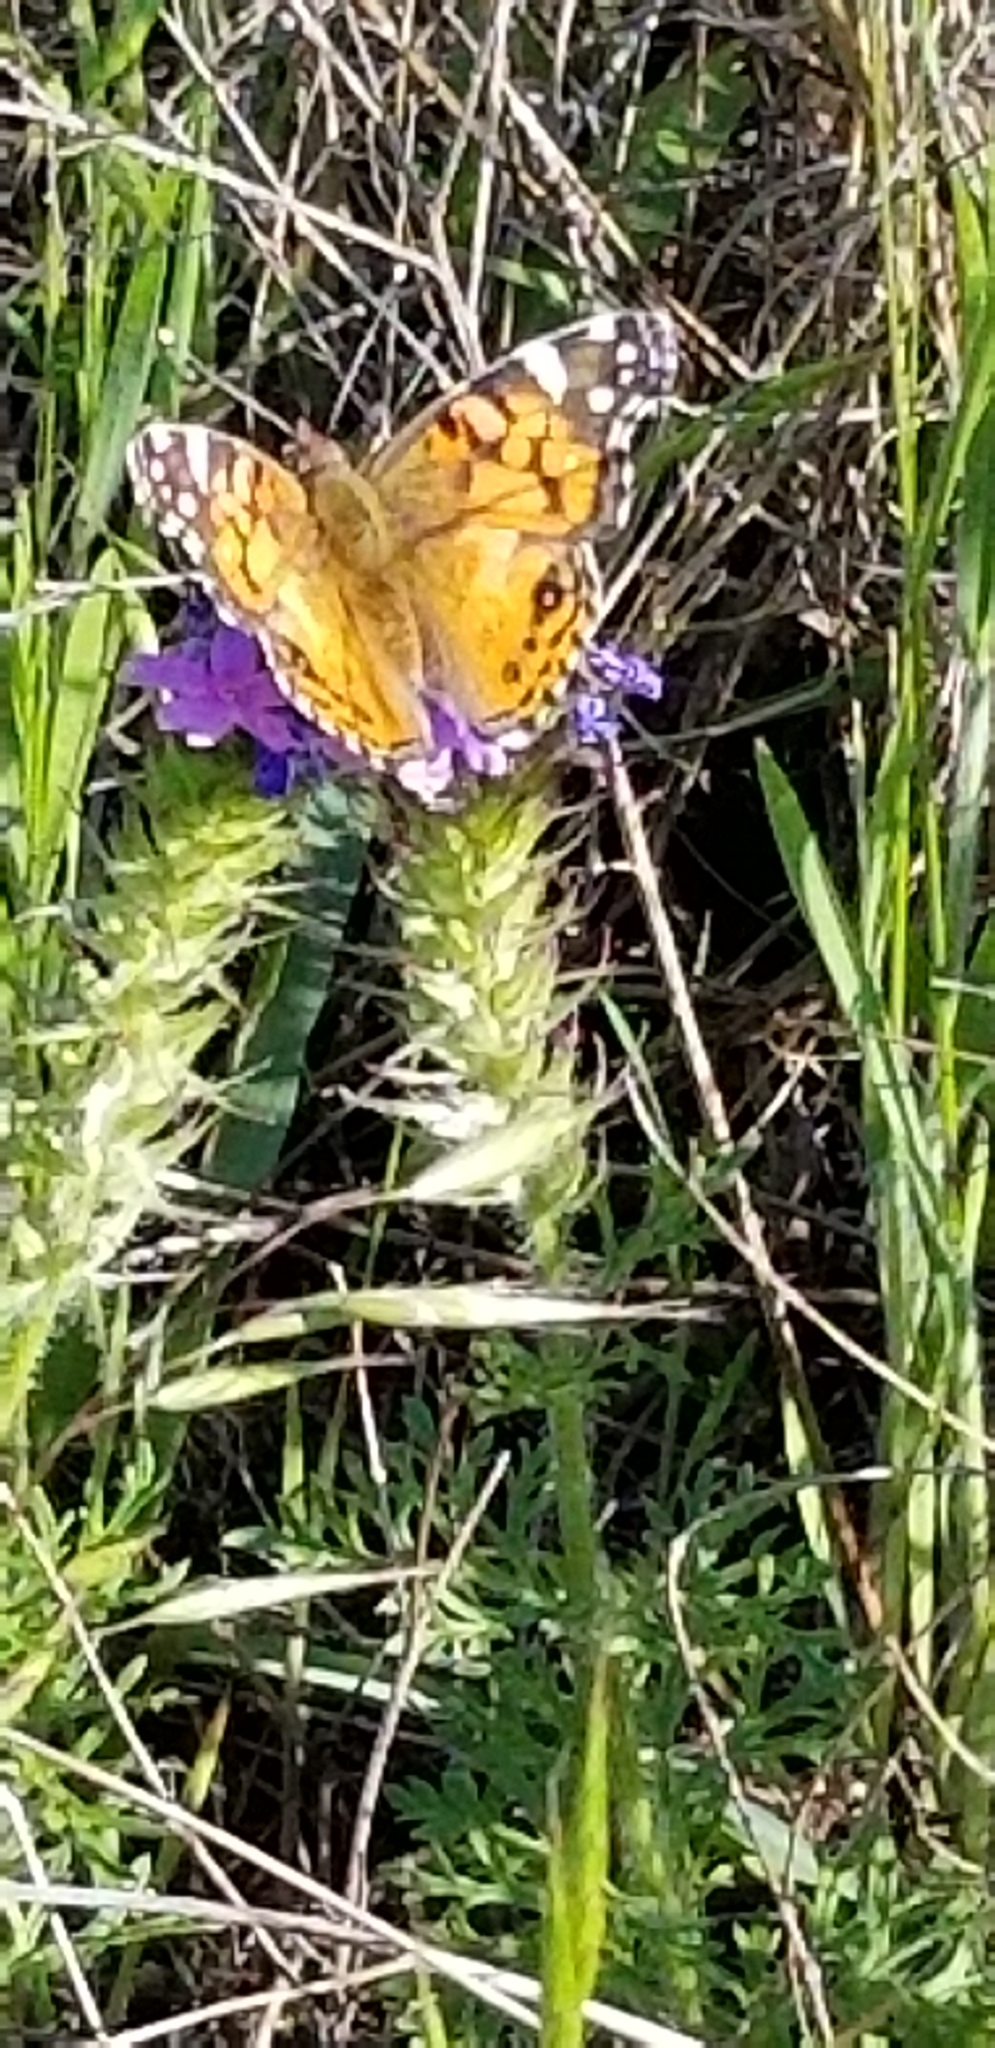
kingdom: Animalia
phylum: Arthropoda
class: Insecta
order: Lepidoptera
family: Nymphalidae
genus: Vanessa
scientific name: Vanessa virginiensis
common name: American lady
